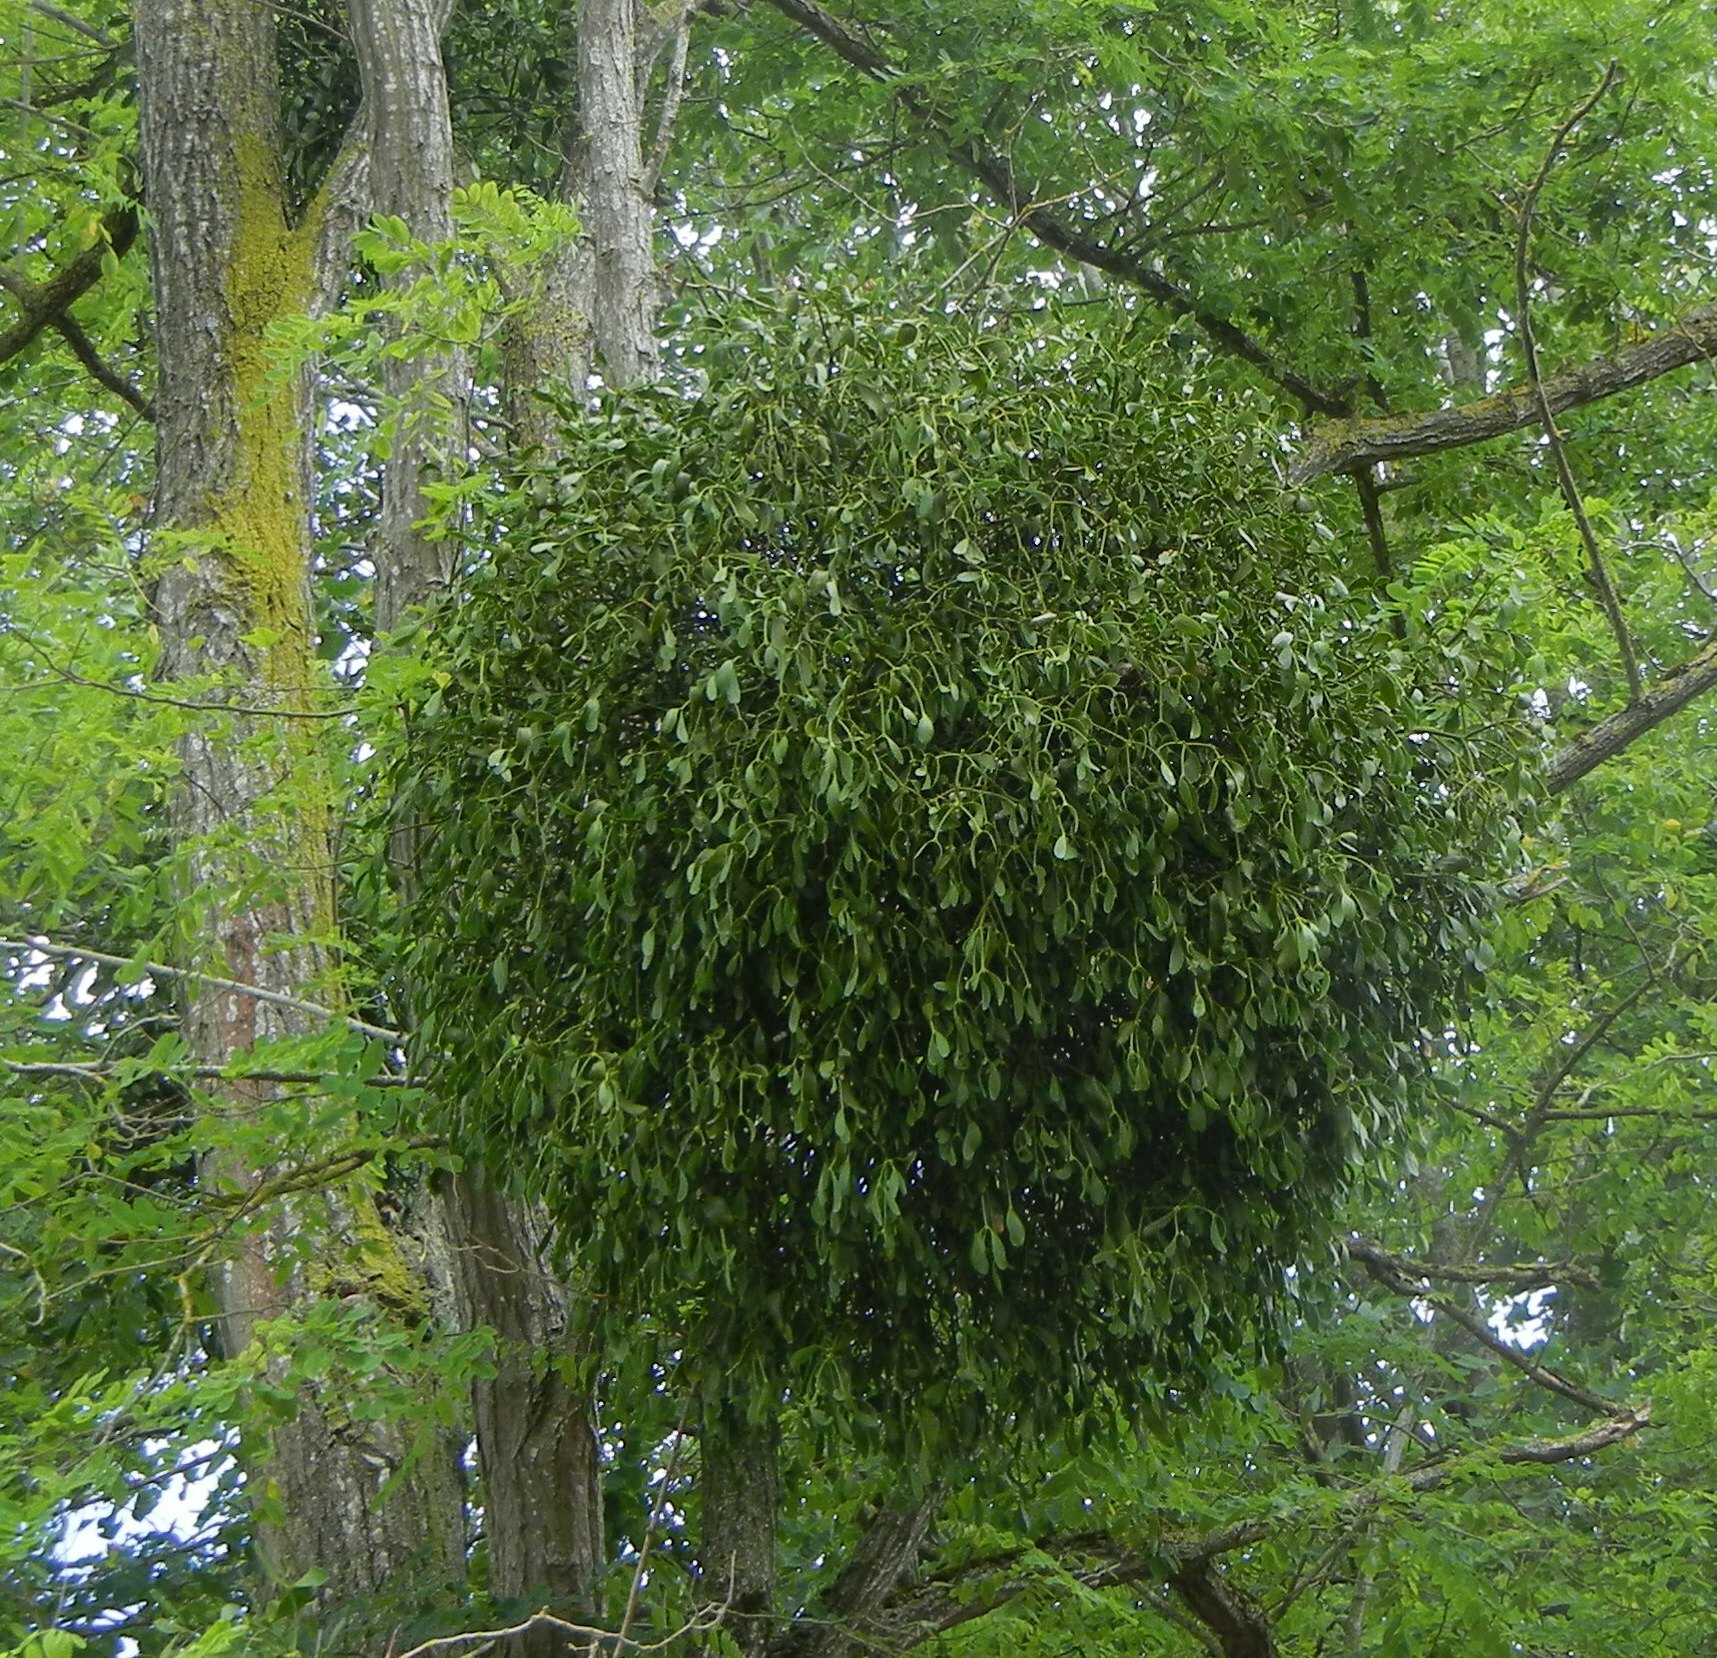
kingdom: Plantae
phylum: Tracheophyta
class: Magnoliopsida
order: Santalales
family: Viscaceae
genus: Viscum
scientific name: Viscum album
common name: Mistletoe
